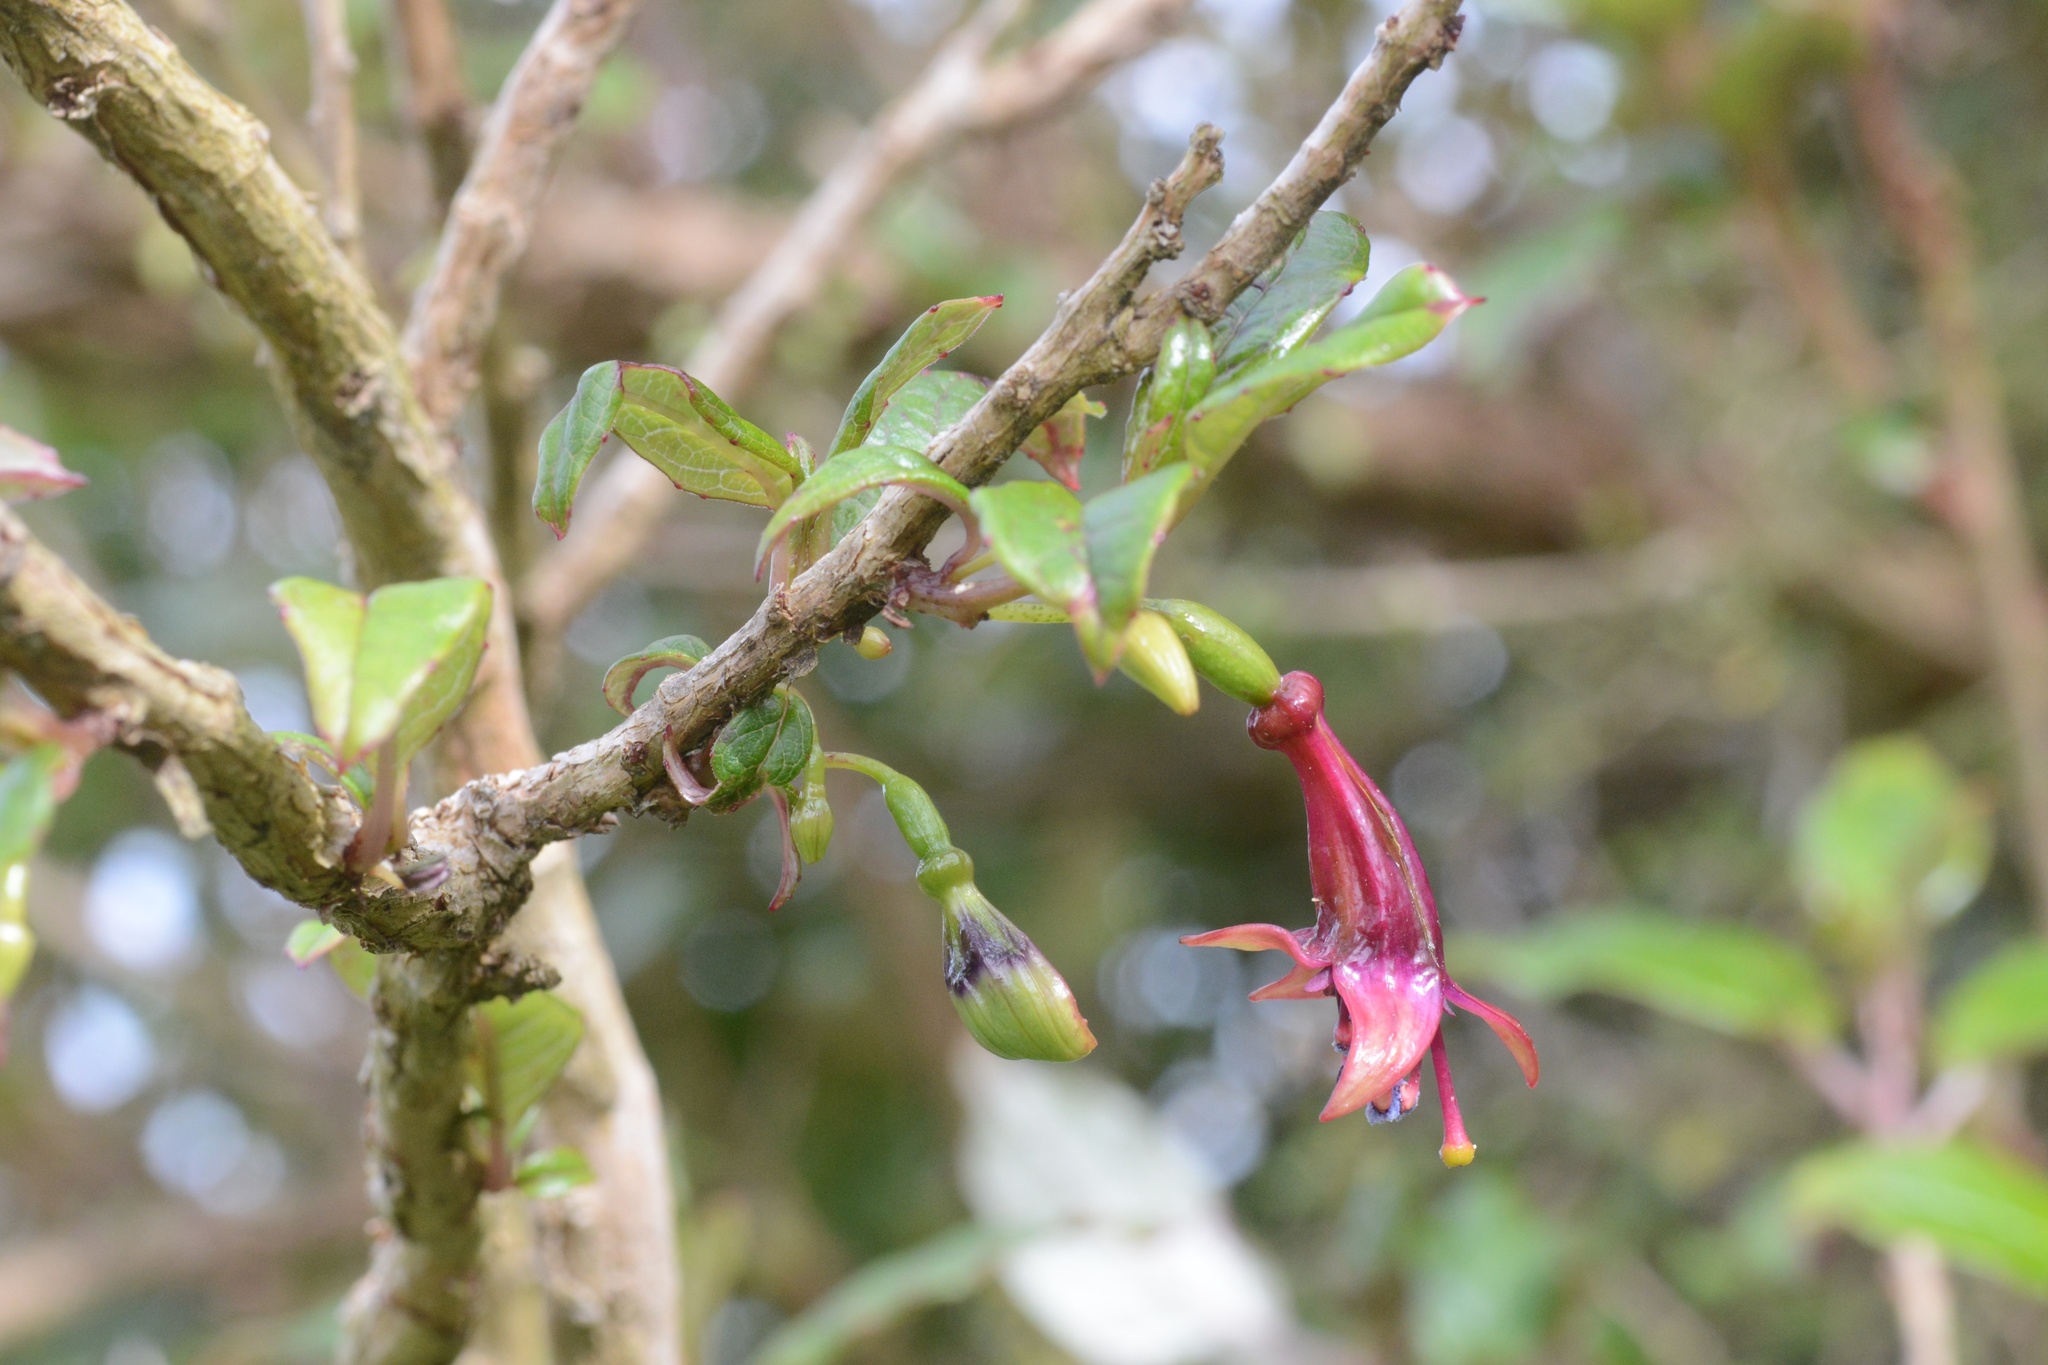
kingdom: Plantae
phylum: Tracheophyta
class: Magnoliopsida
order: Myrtales
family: Onagraceae
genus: Fuchsia
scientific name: Fuchsia excorticata
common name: Tree fuchsia
